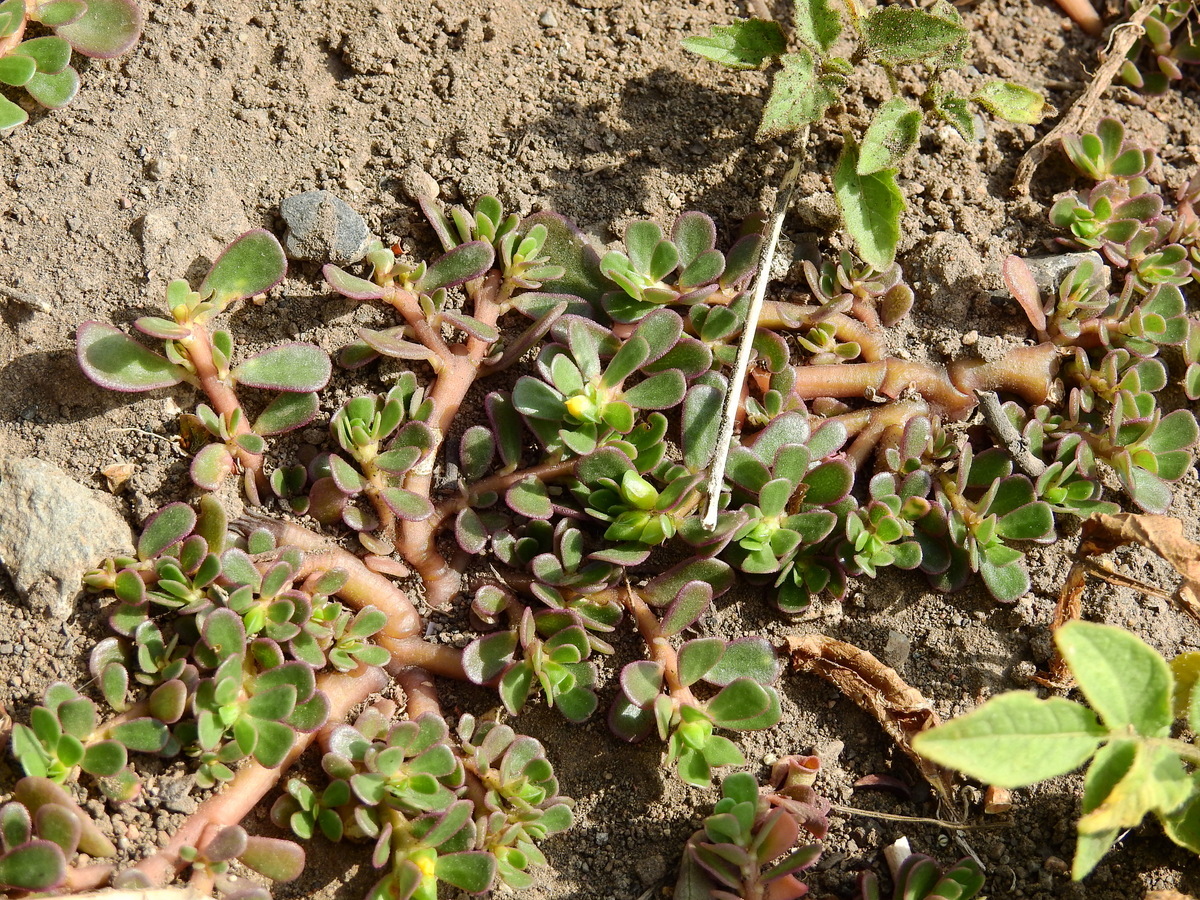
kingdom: Plantae
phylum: Tracheophyta
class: Magnoliopsida
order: Caryophyllales
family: Portulacaceae
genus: Portulaca
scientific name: Portulaca oleracea
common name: Common purslane
